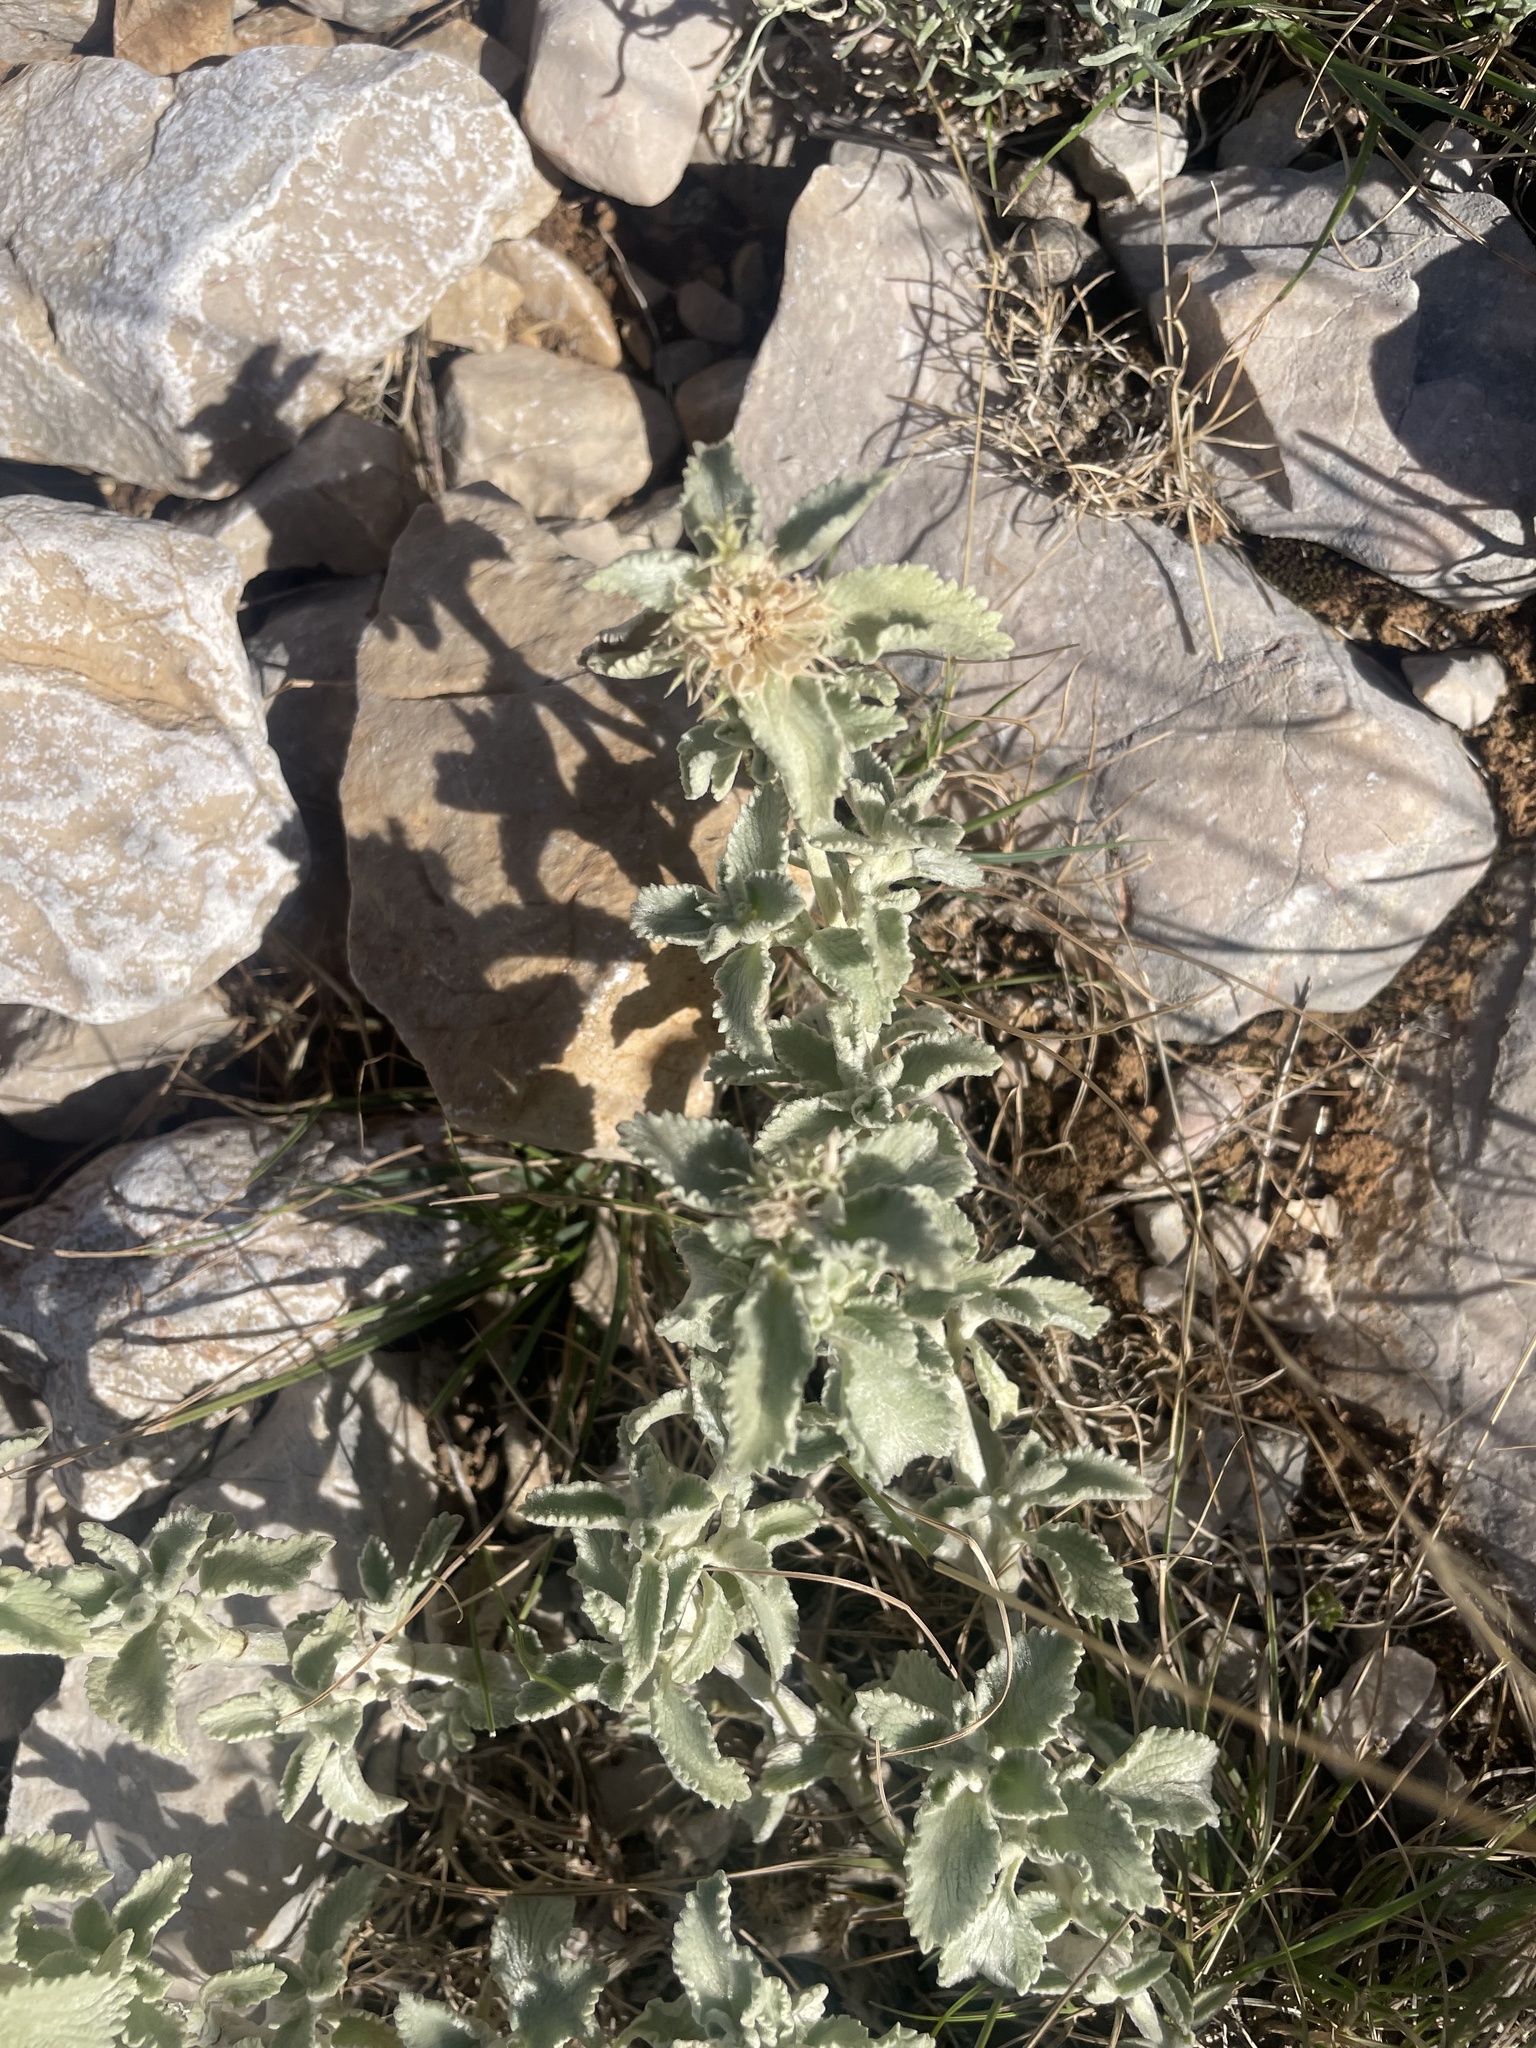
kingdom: Plantae
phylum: Tracheophyta
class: Magnoliopsida
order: Lamiales
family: Lamiaceae
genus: Marrubium
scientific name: Marrubium incanum
